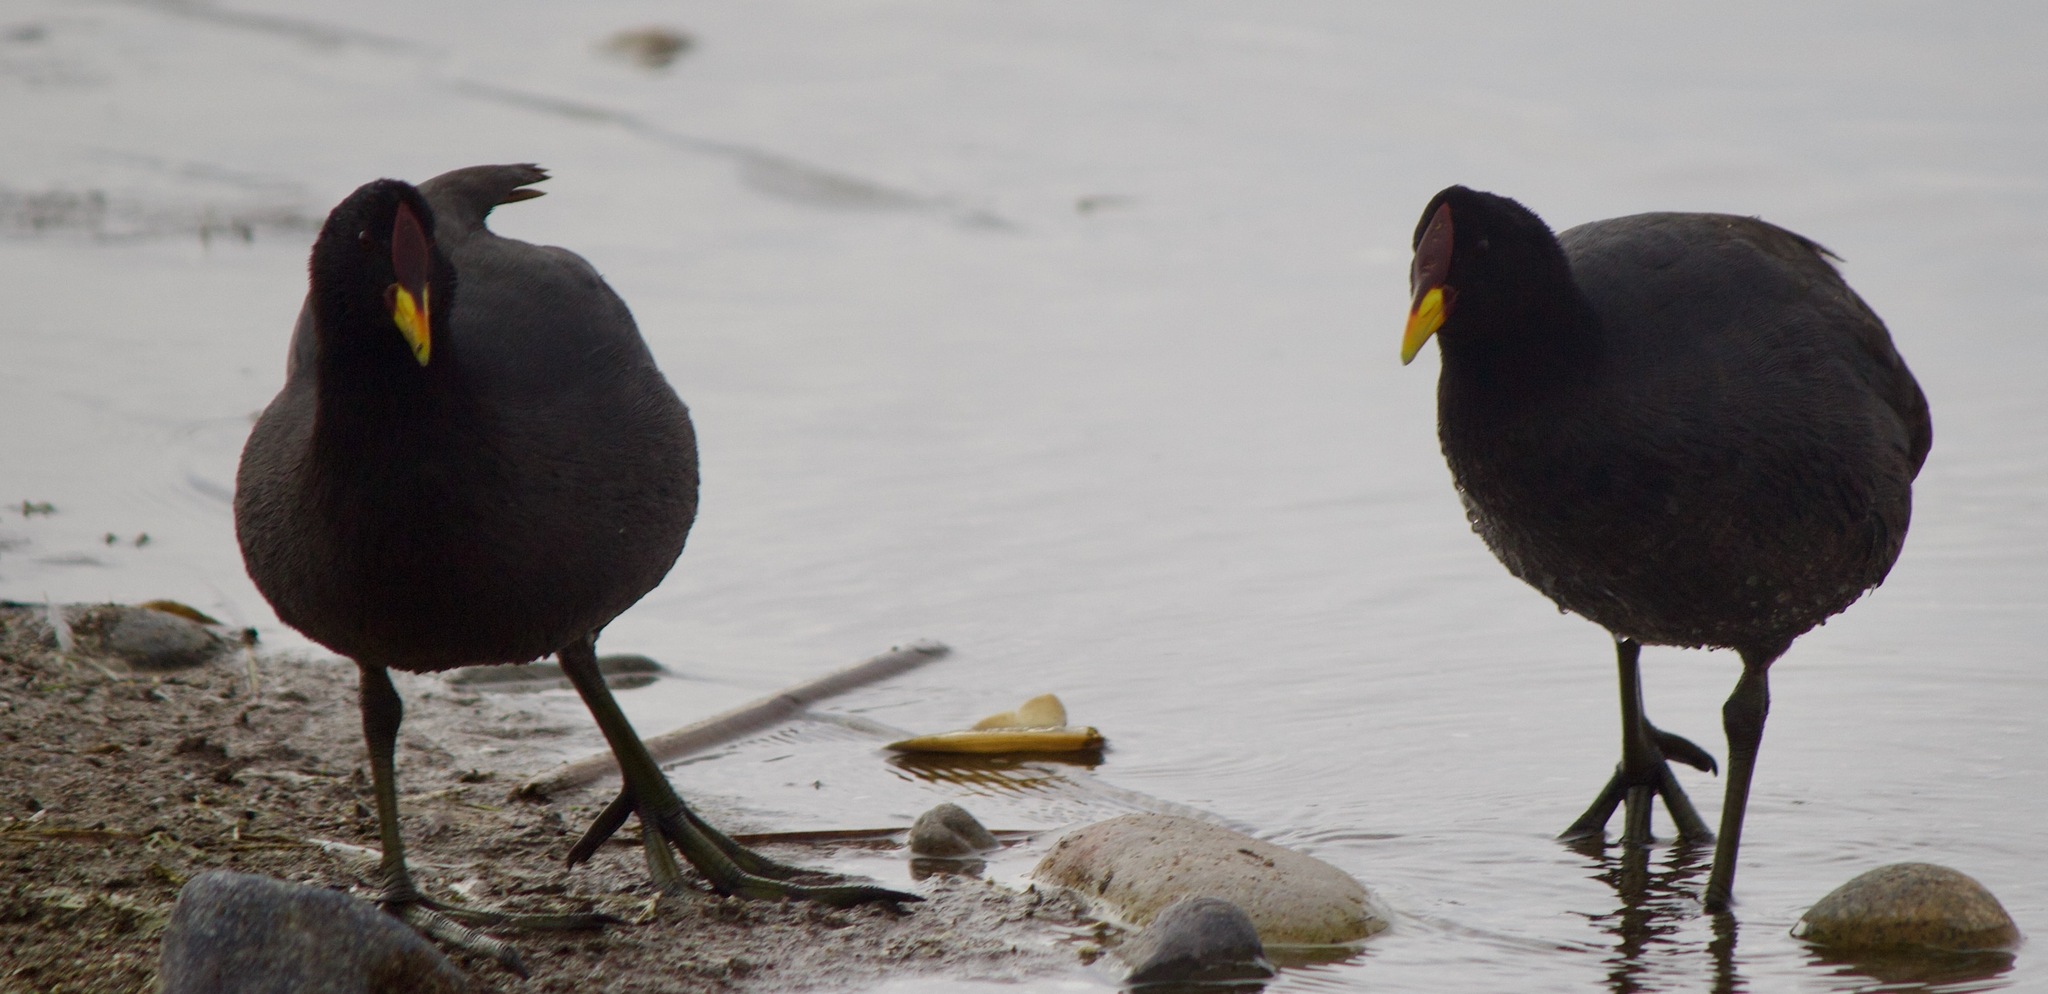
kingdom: Animalia
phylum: Chordata
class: Aves
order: Gruiformes
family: Rallidae
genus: Fulica
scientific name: Fulica rufifrons
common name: Red-fronted coot
